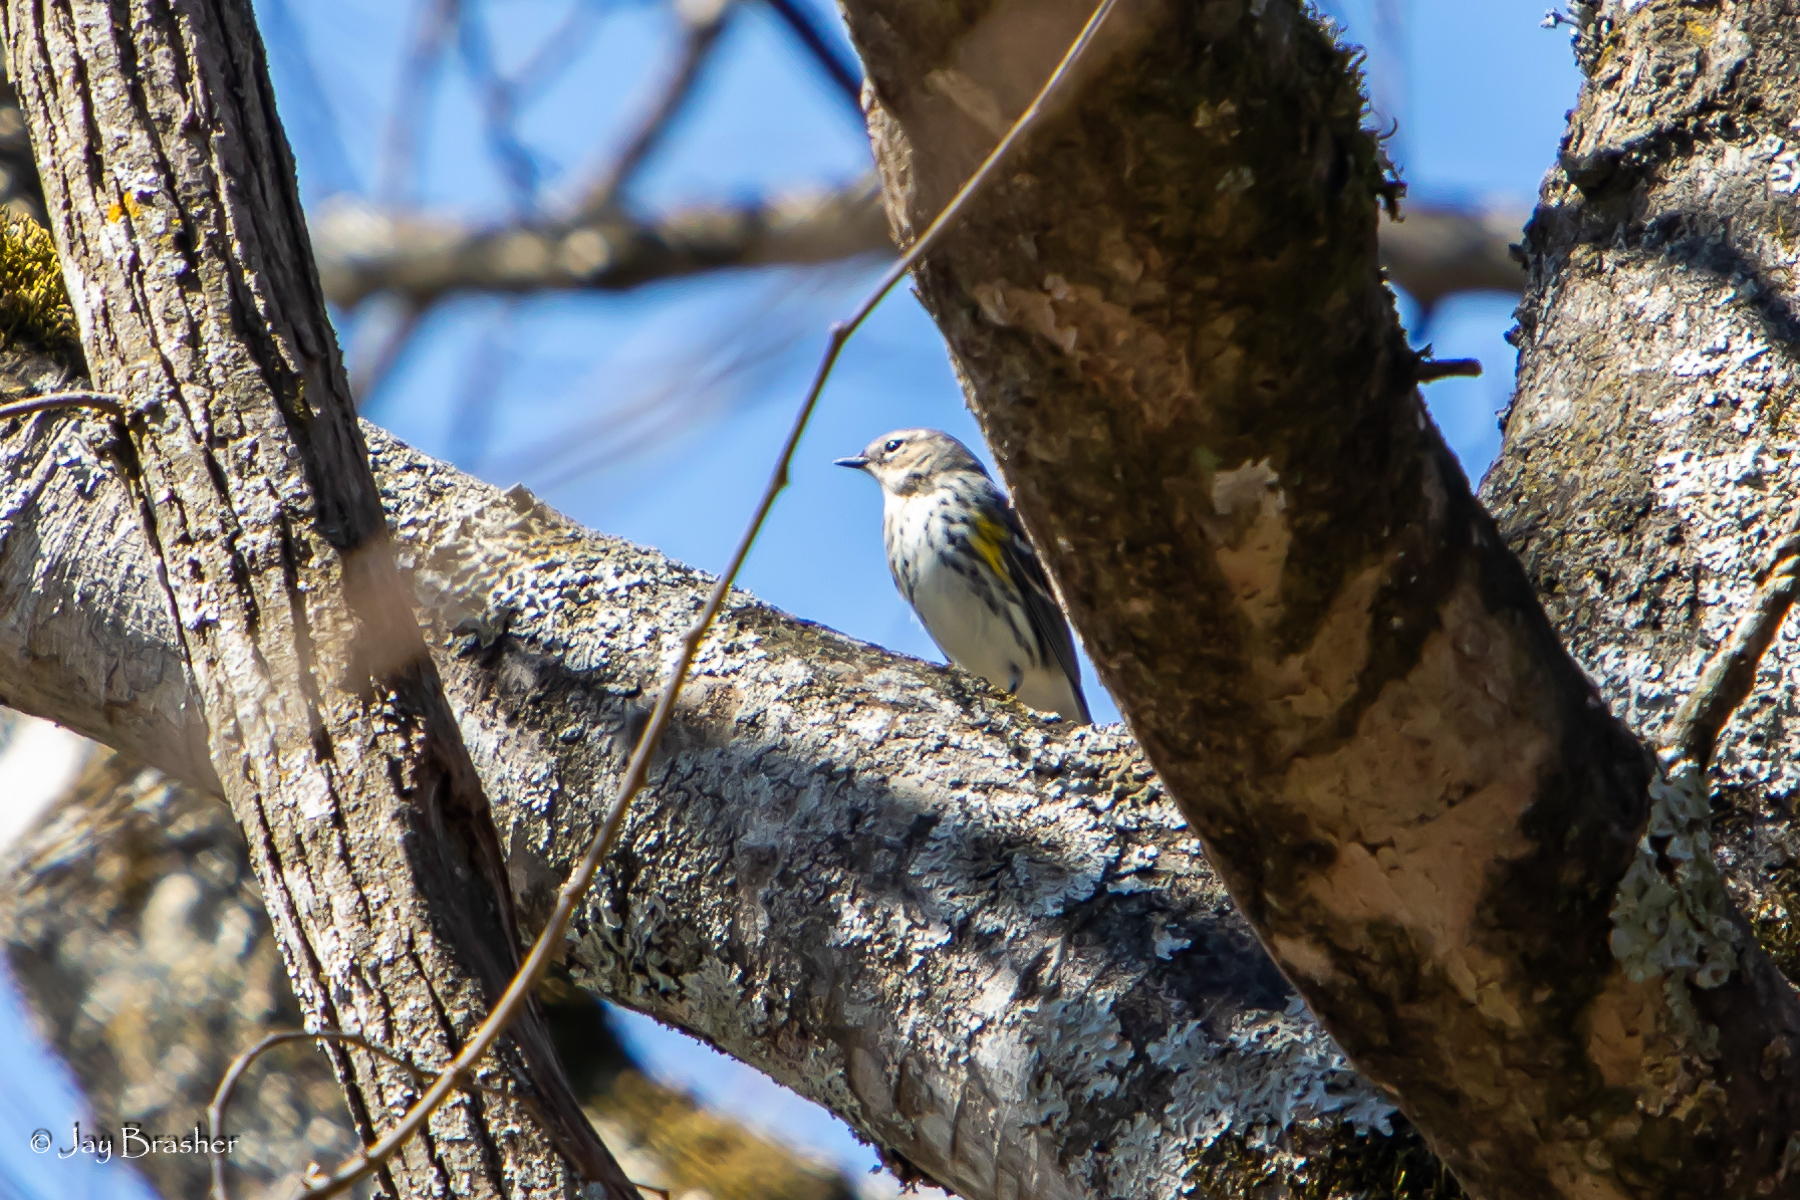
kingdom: Animalia
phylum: Chordata
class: Aves
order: Passeriformes
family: Parulidae
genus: Setophaga
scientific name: Setophaga coronata
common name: Myrtle warbler
